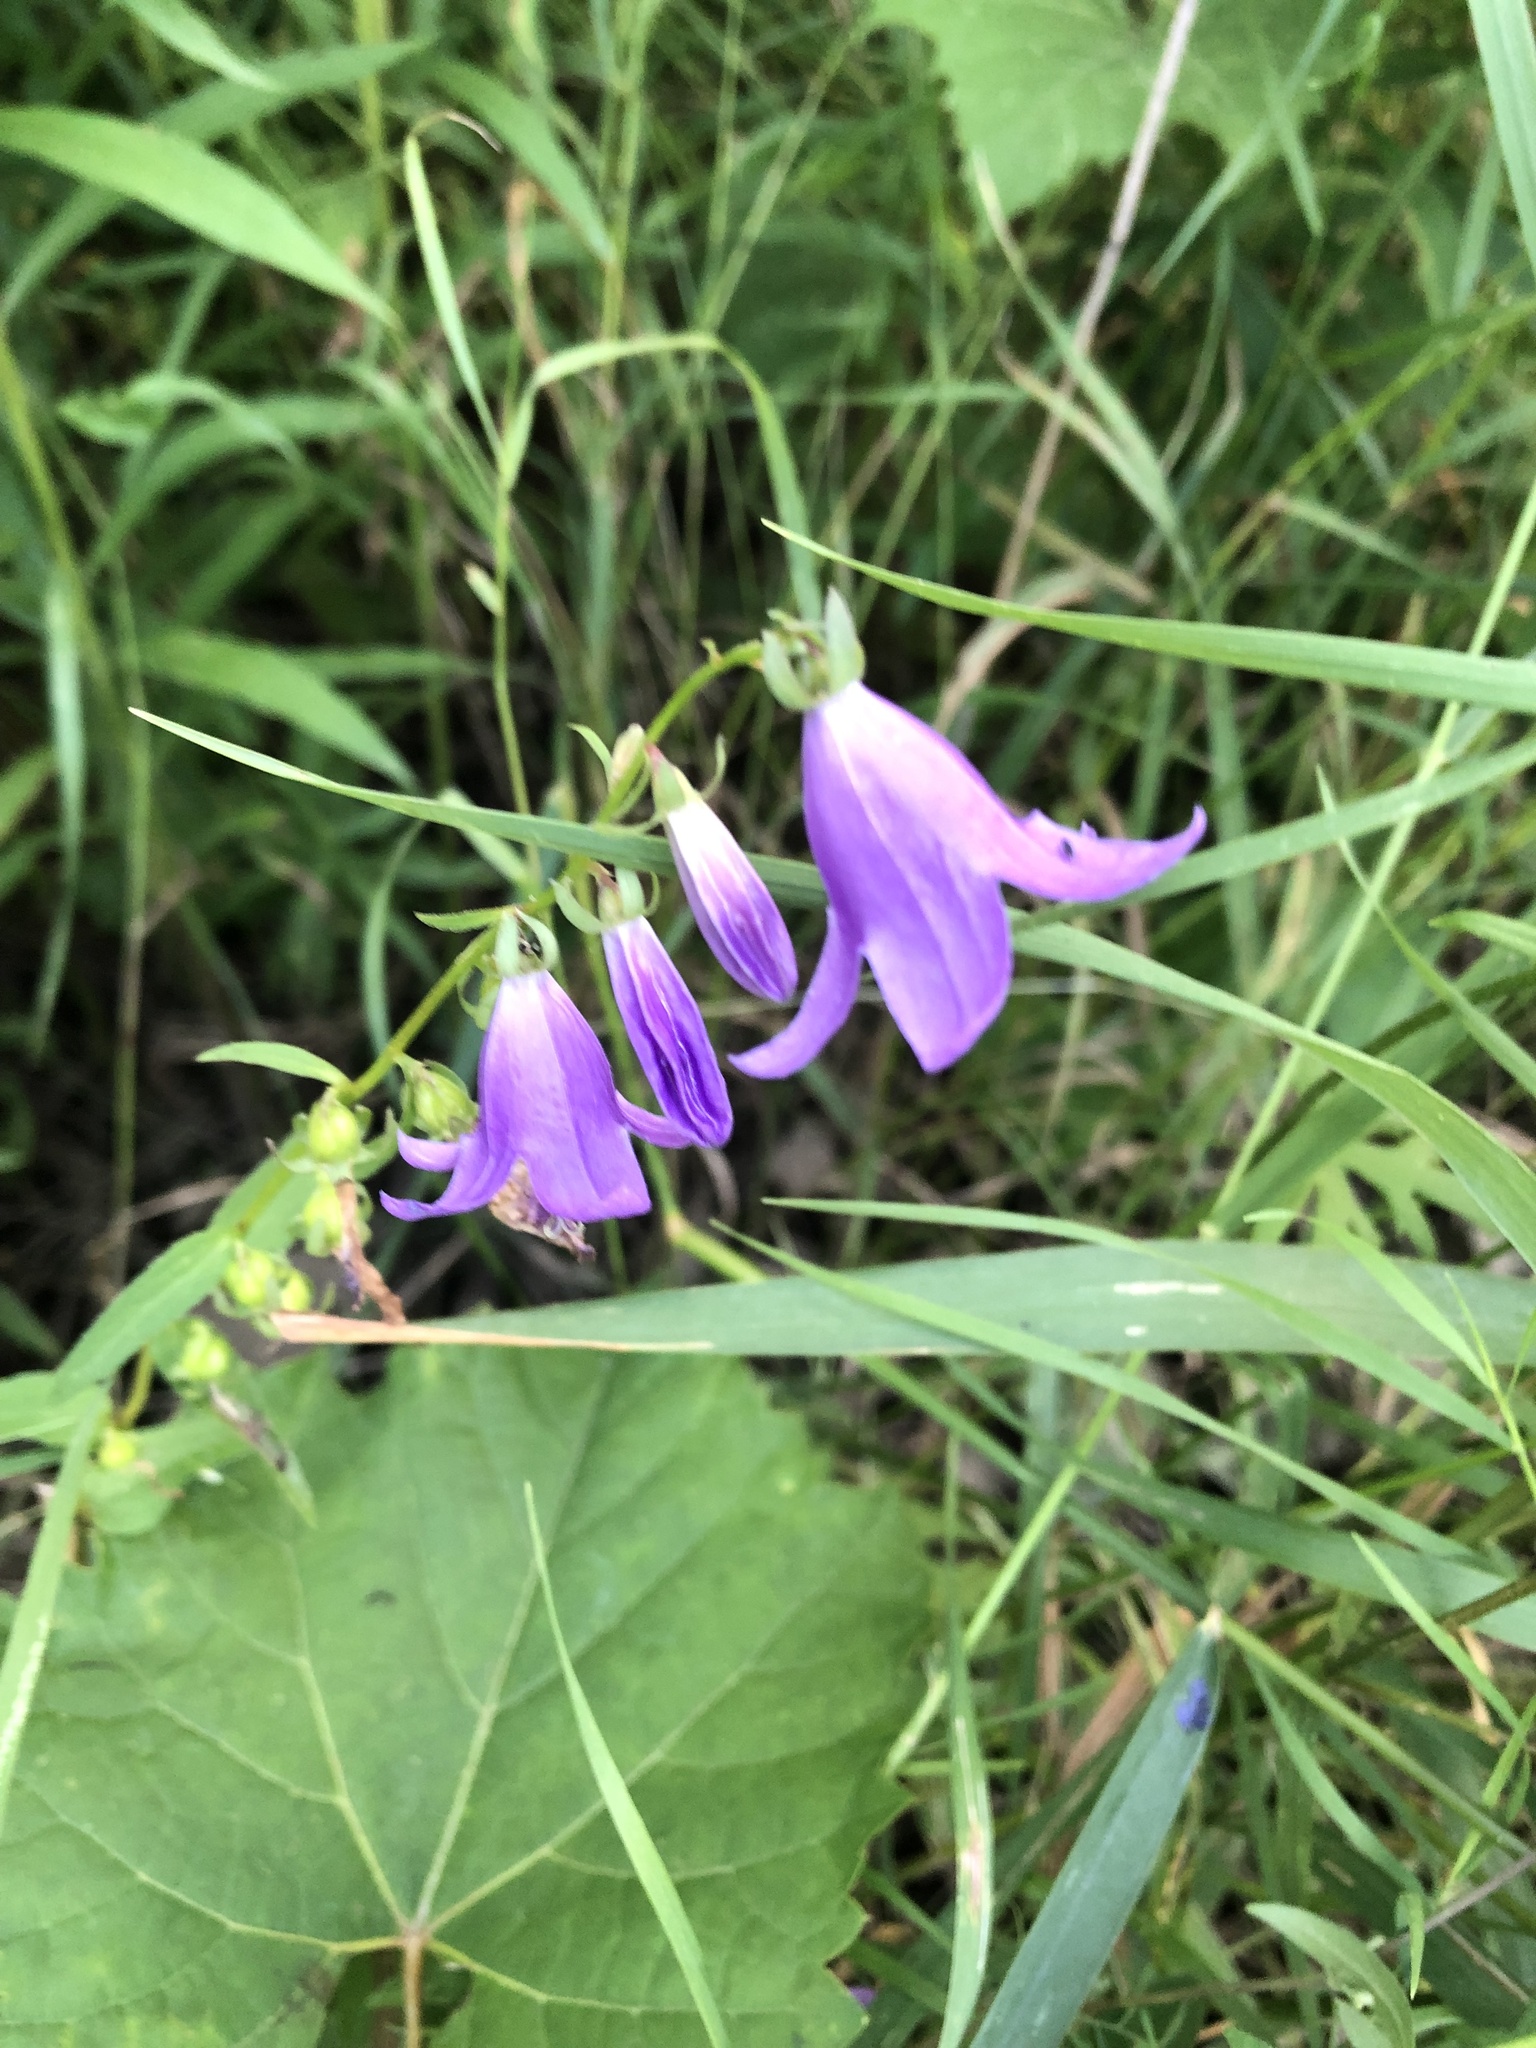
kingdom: Plantae
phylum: Tracheophyta
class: Magnoliopsida
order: Asterales
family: Campanulaceae
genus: Campanula
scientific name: Campanula rapunculoides
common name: Creeping bellflower
